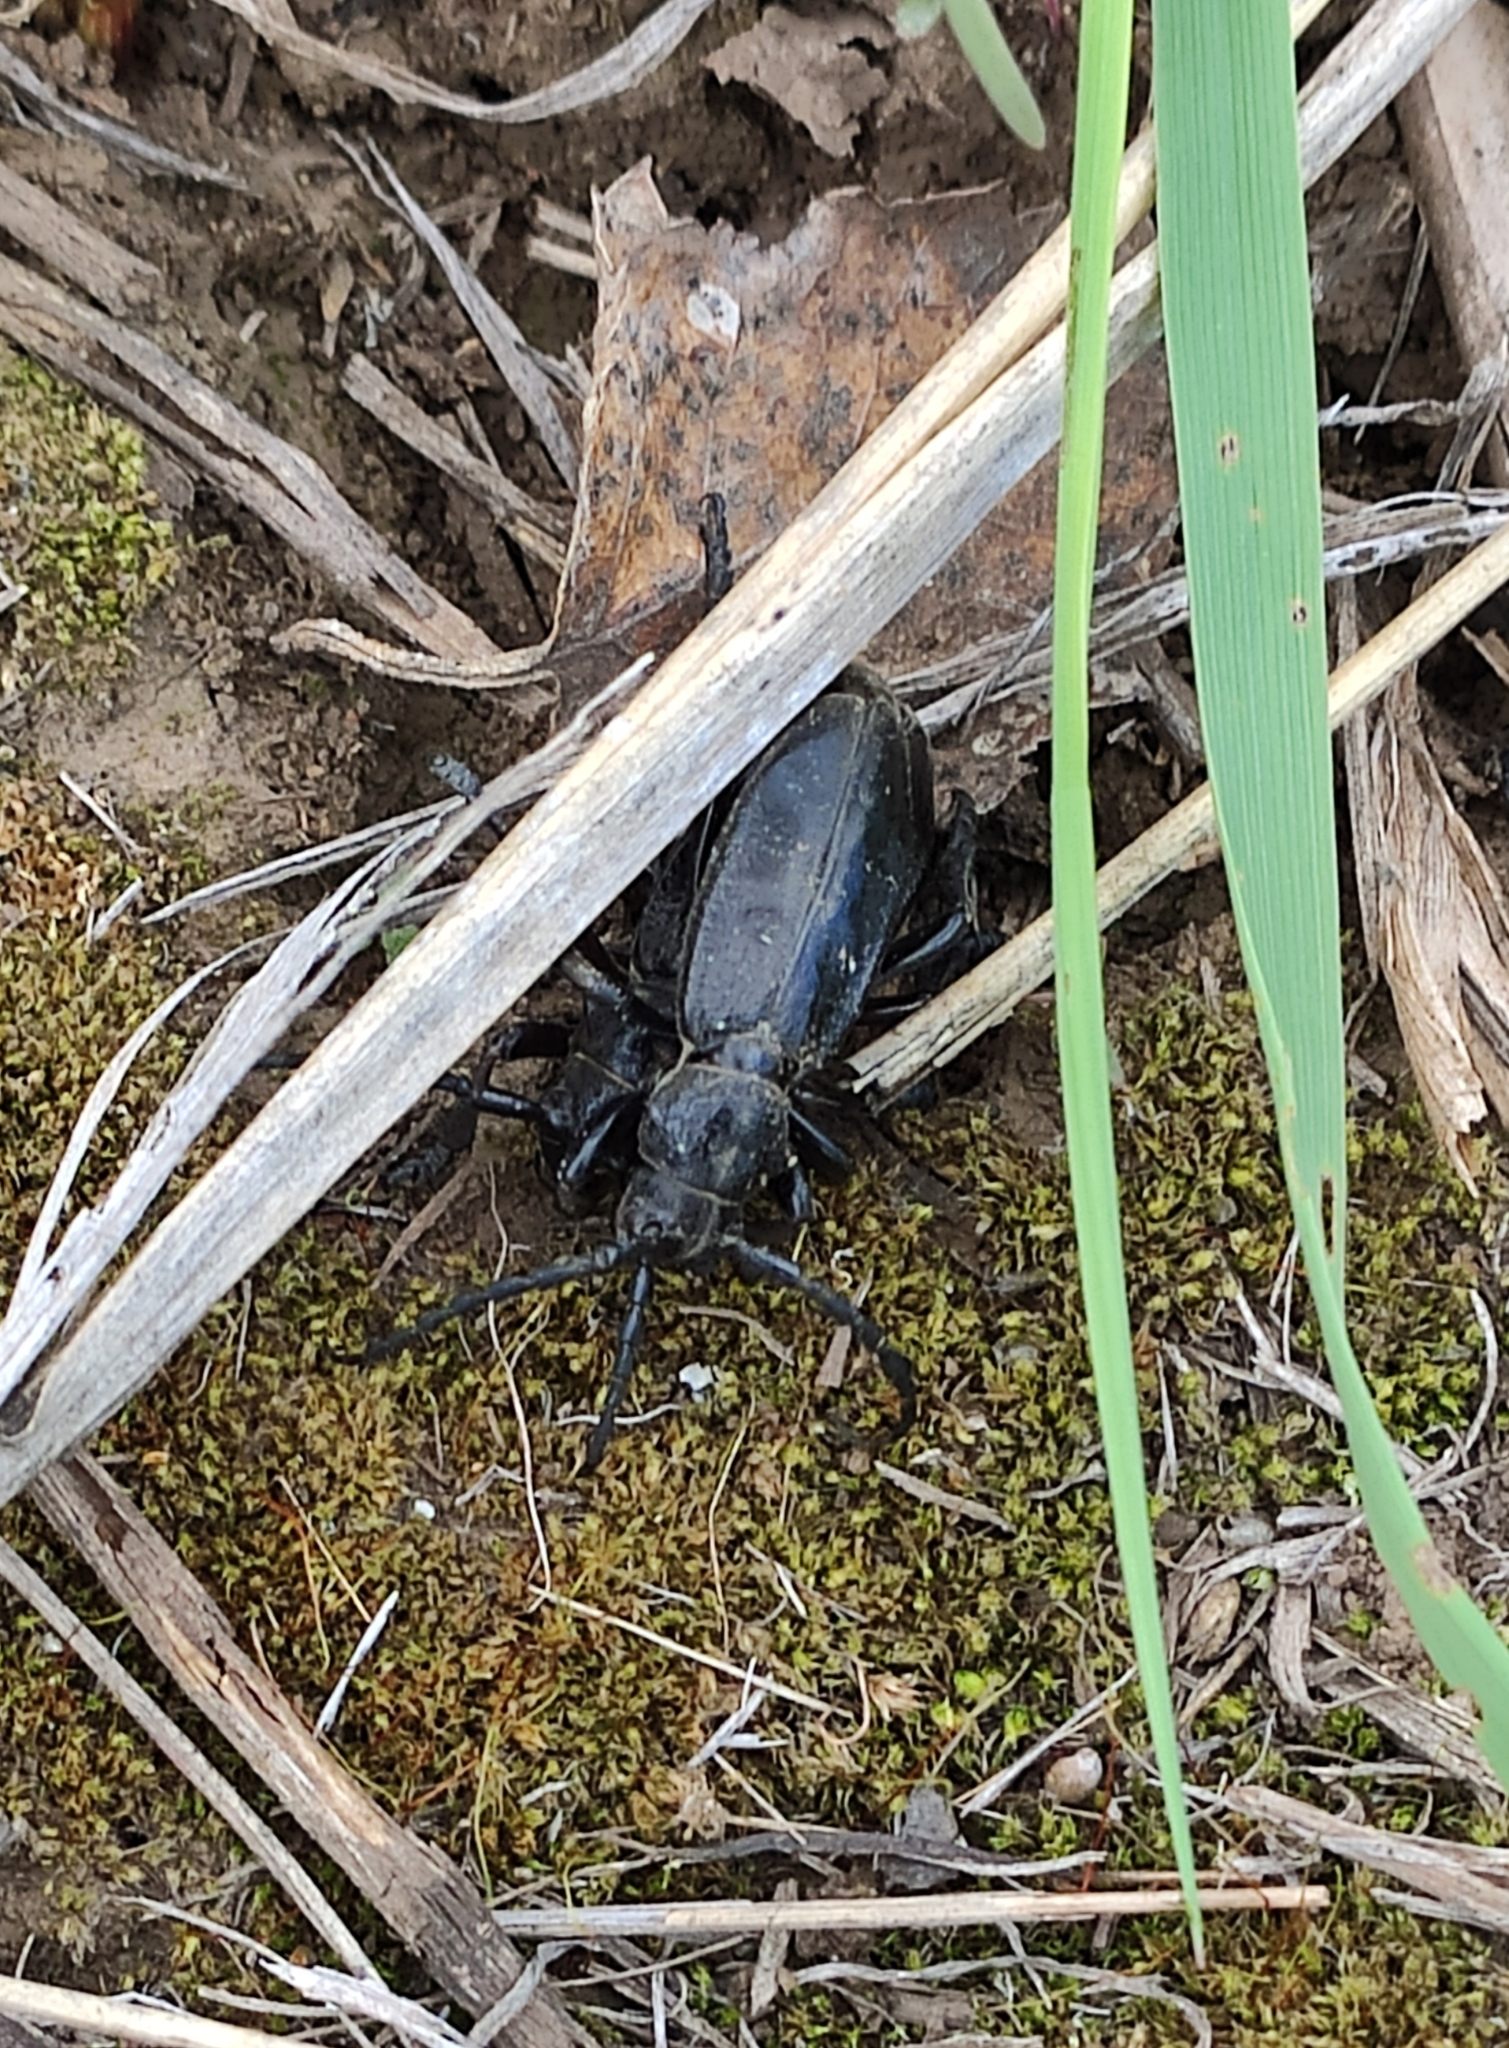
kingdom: Animalia
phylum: Arthropoda
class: Insecta
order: Coleoptera
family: Cerambycidae
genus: Dorcadion
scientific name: Dorcadion carinatum
